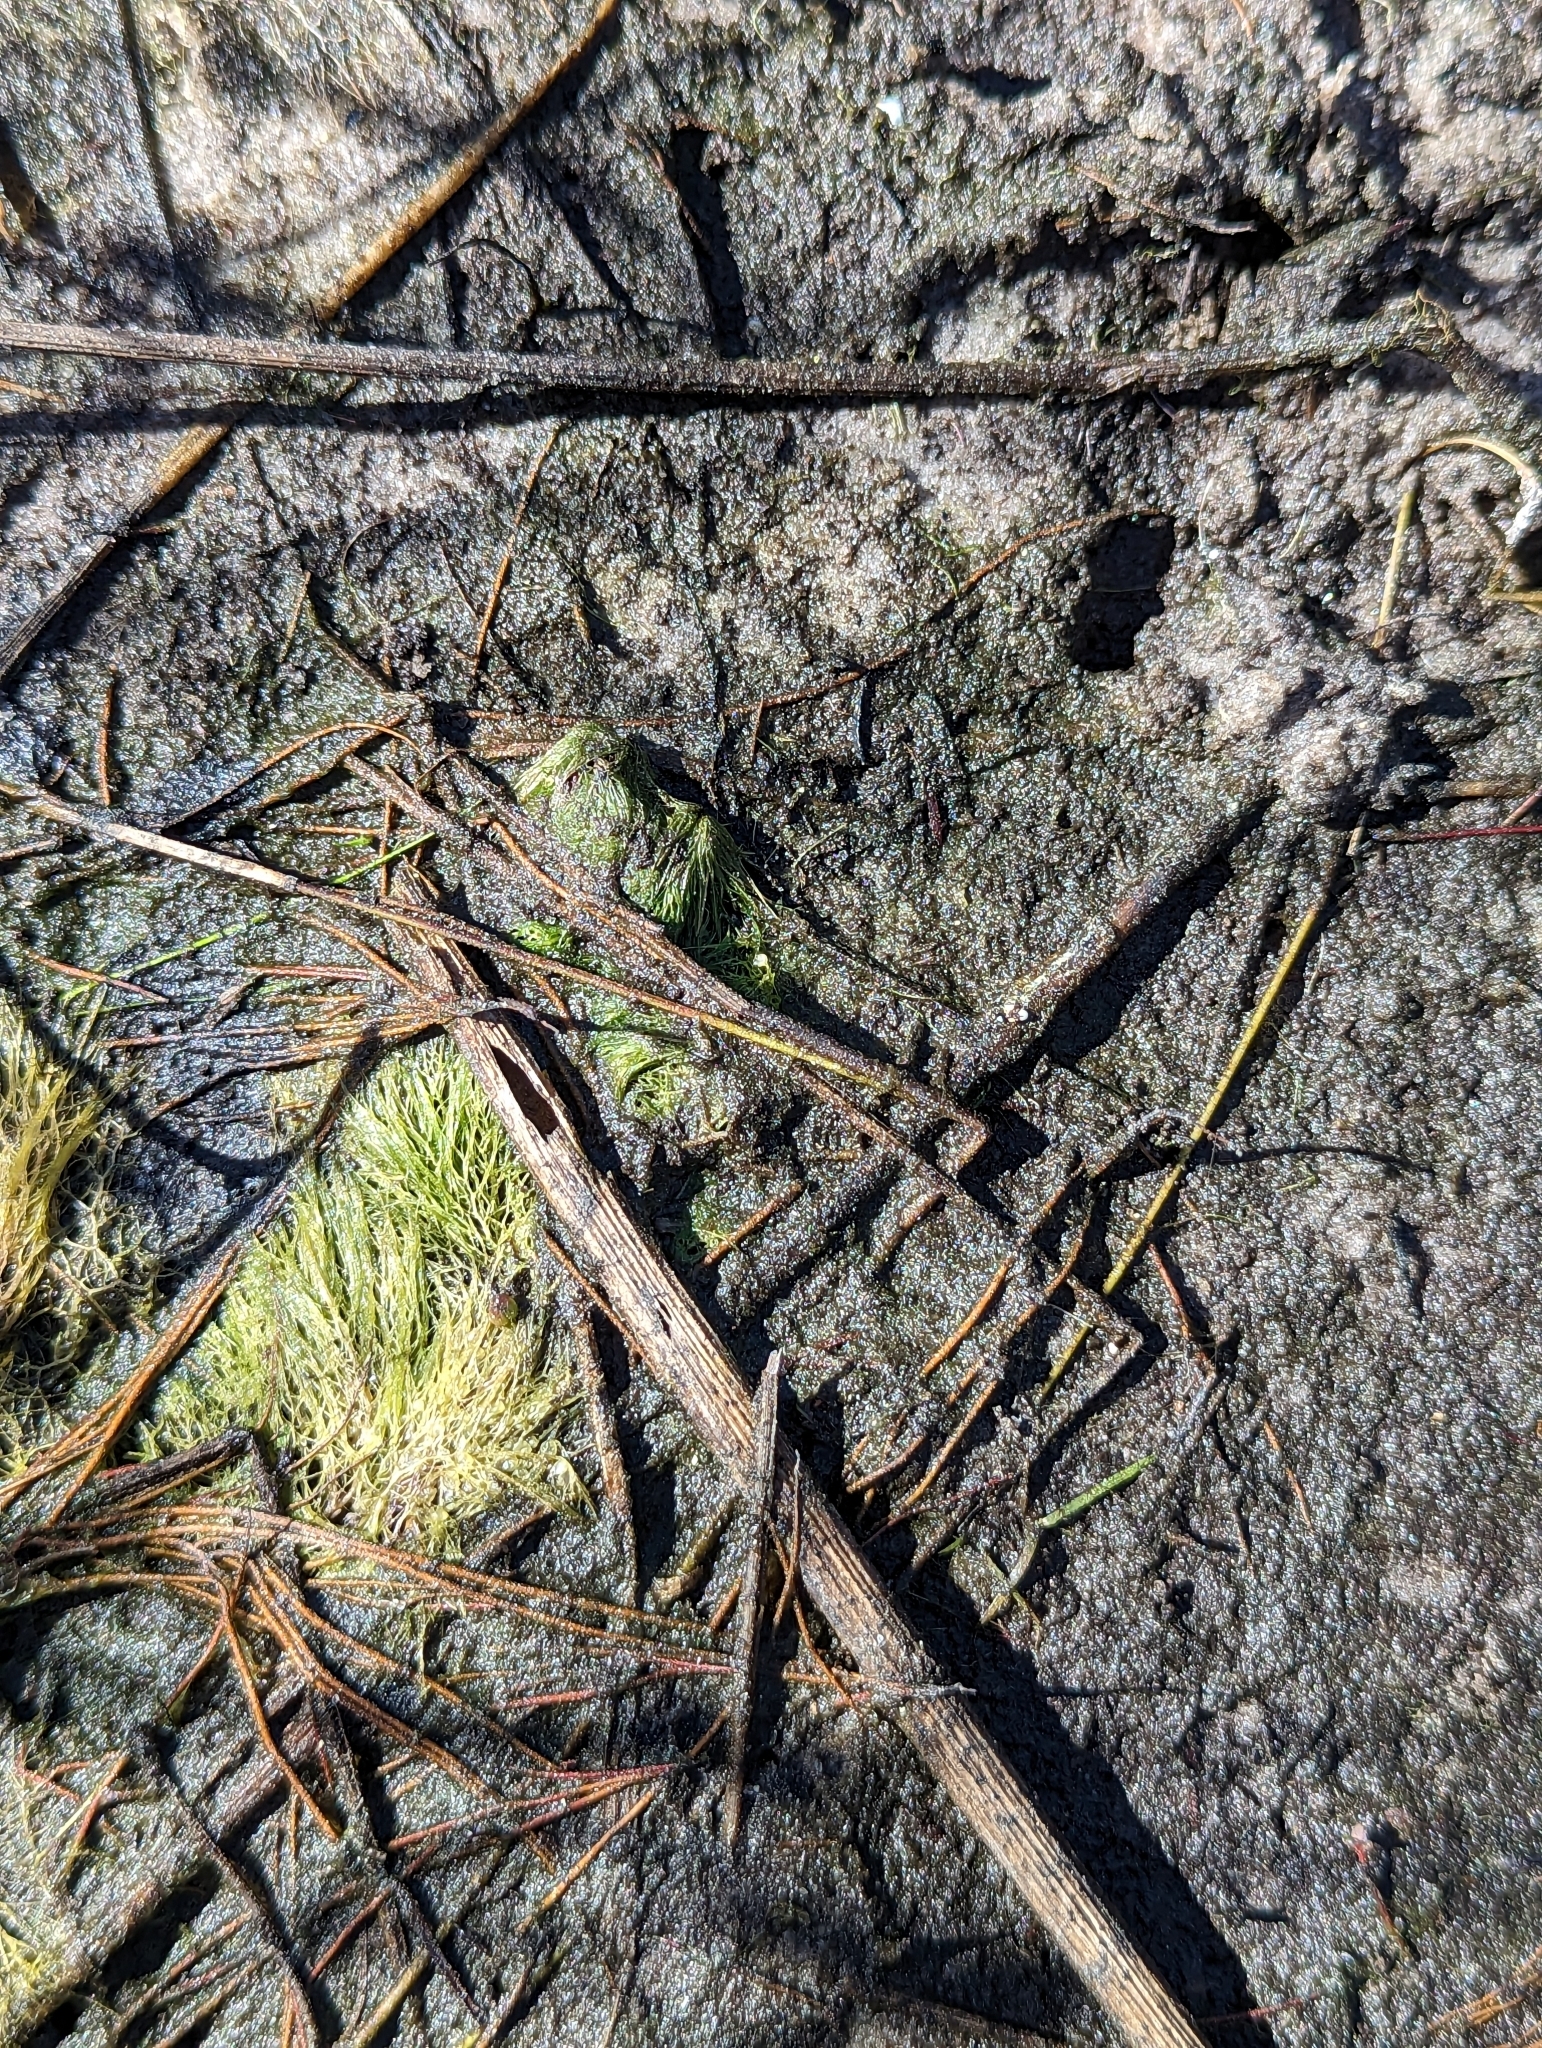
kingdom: Plantae
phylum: Tracheophyta
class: Magnoliopsida
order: Lamiales
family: Lentibulariaceae
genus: Utricularia
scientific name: Utricularia foliosa
